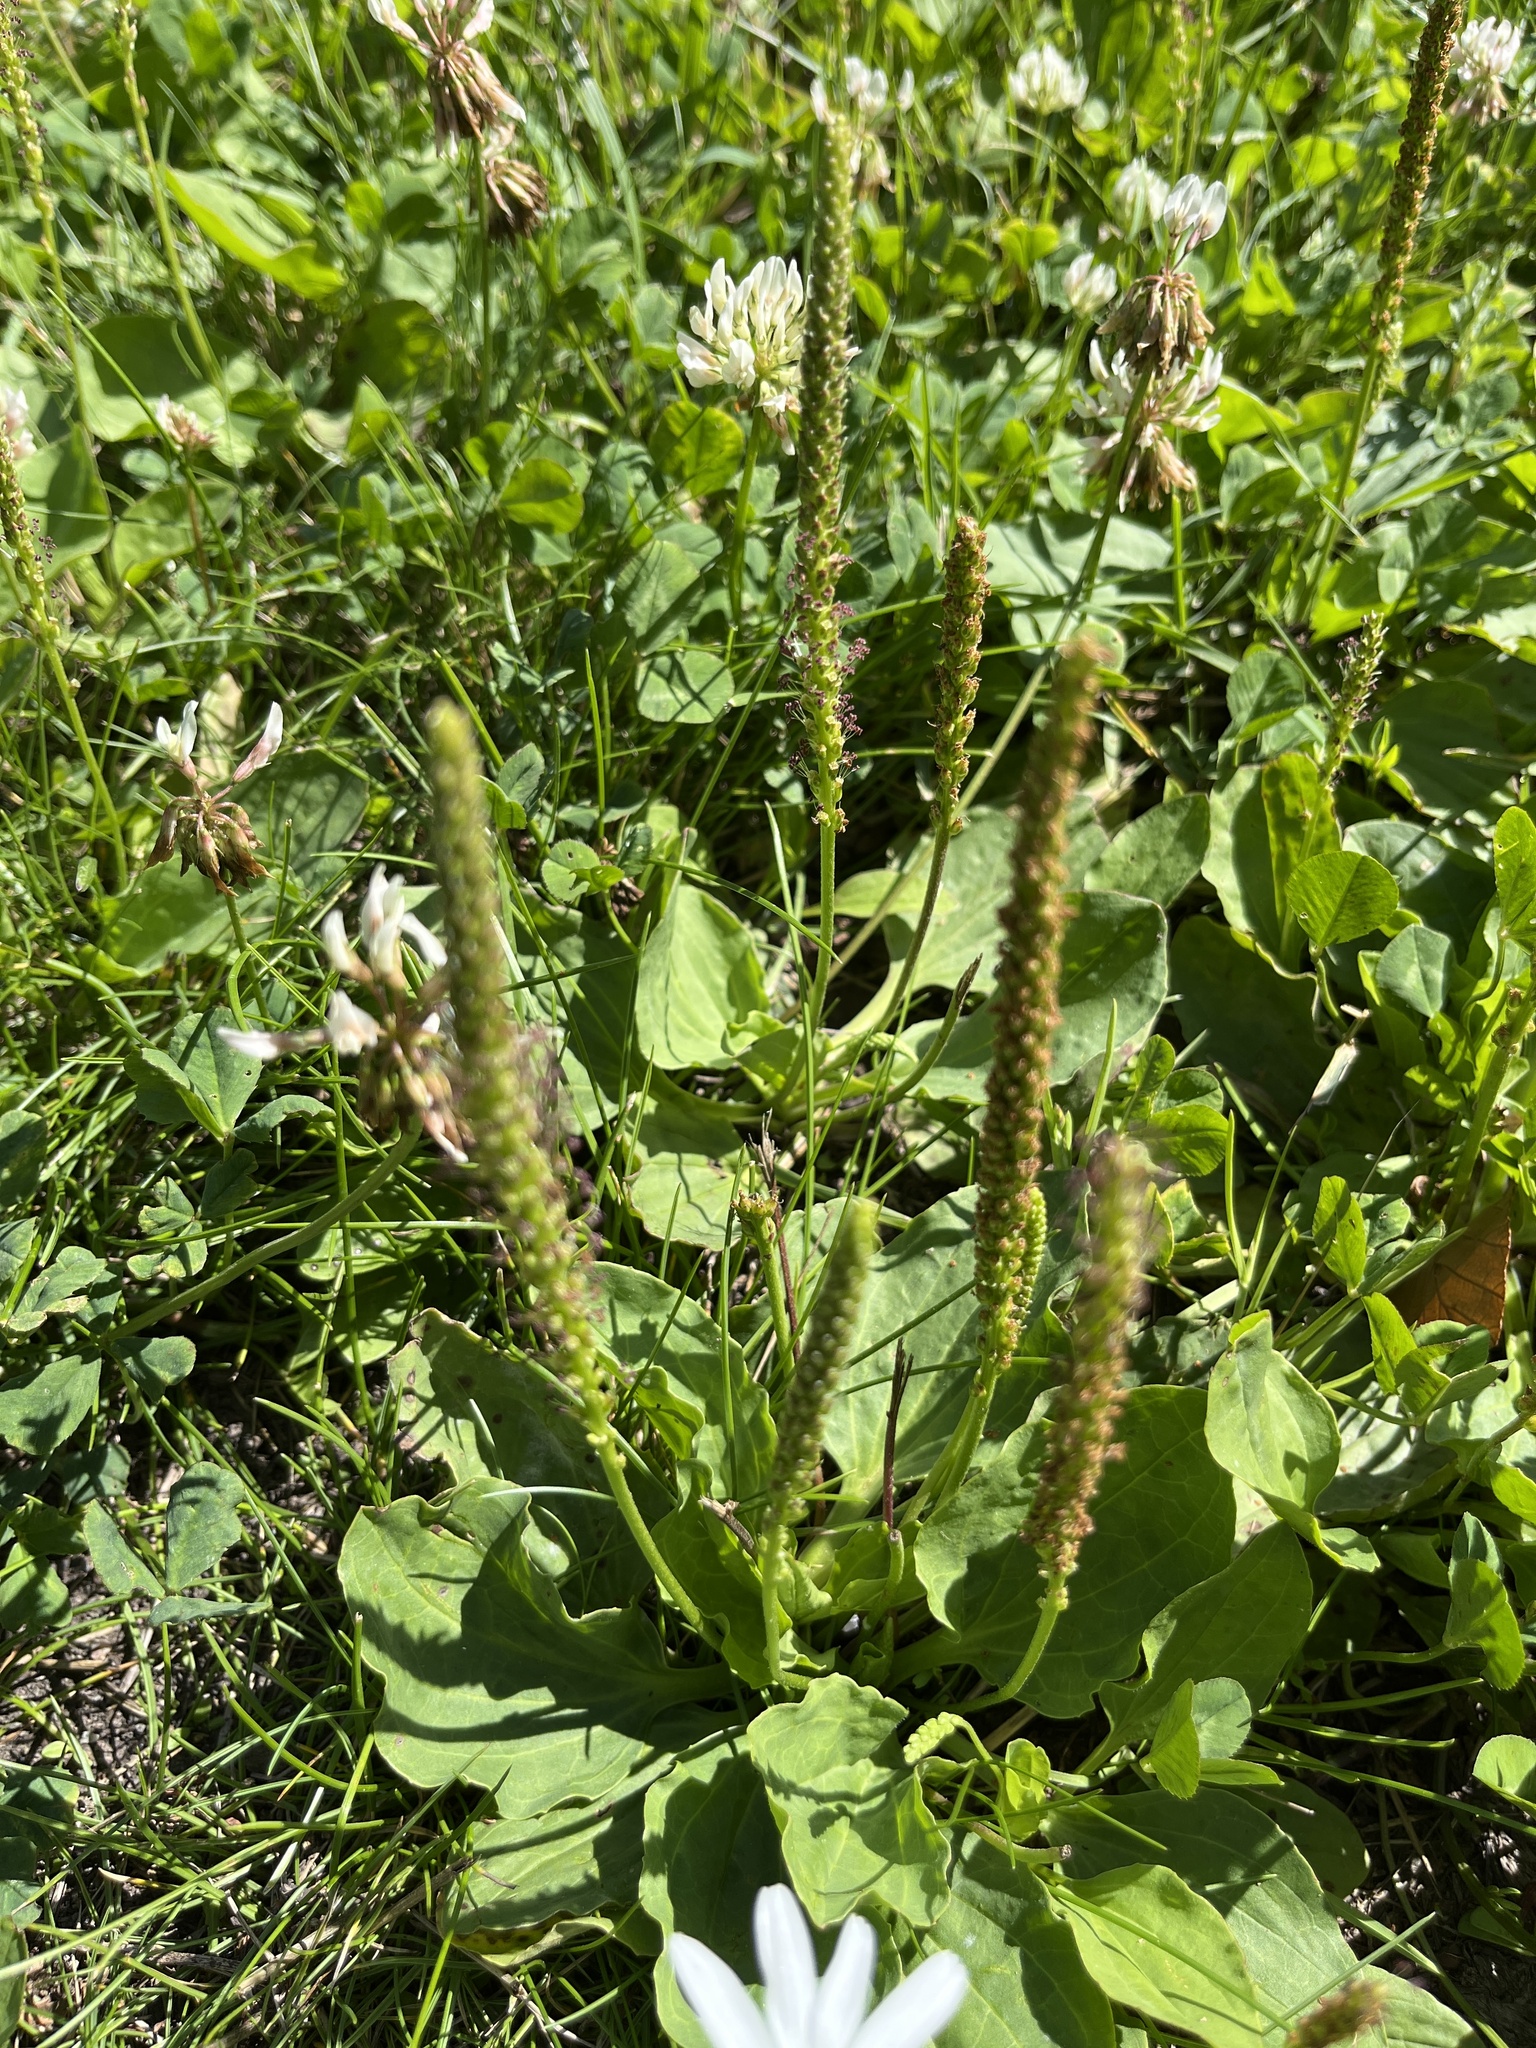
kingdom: Plantae
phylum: Tracheophyta
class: Magnoliopsida
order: Lamiales
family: Plantaginaceae
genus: Plantago
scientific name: Plantago major
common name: Common plantain
